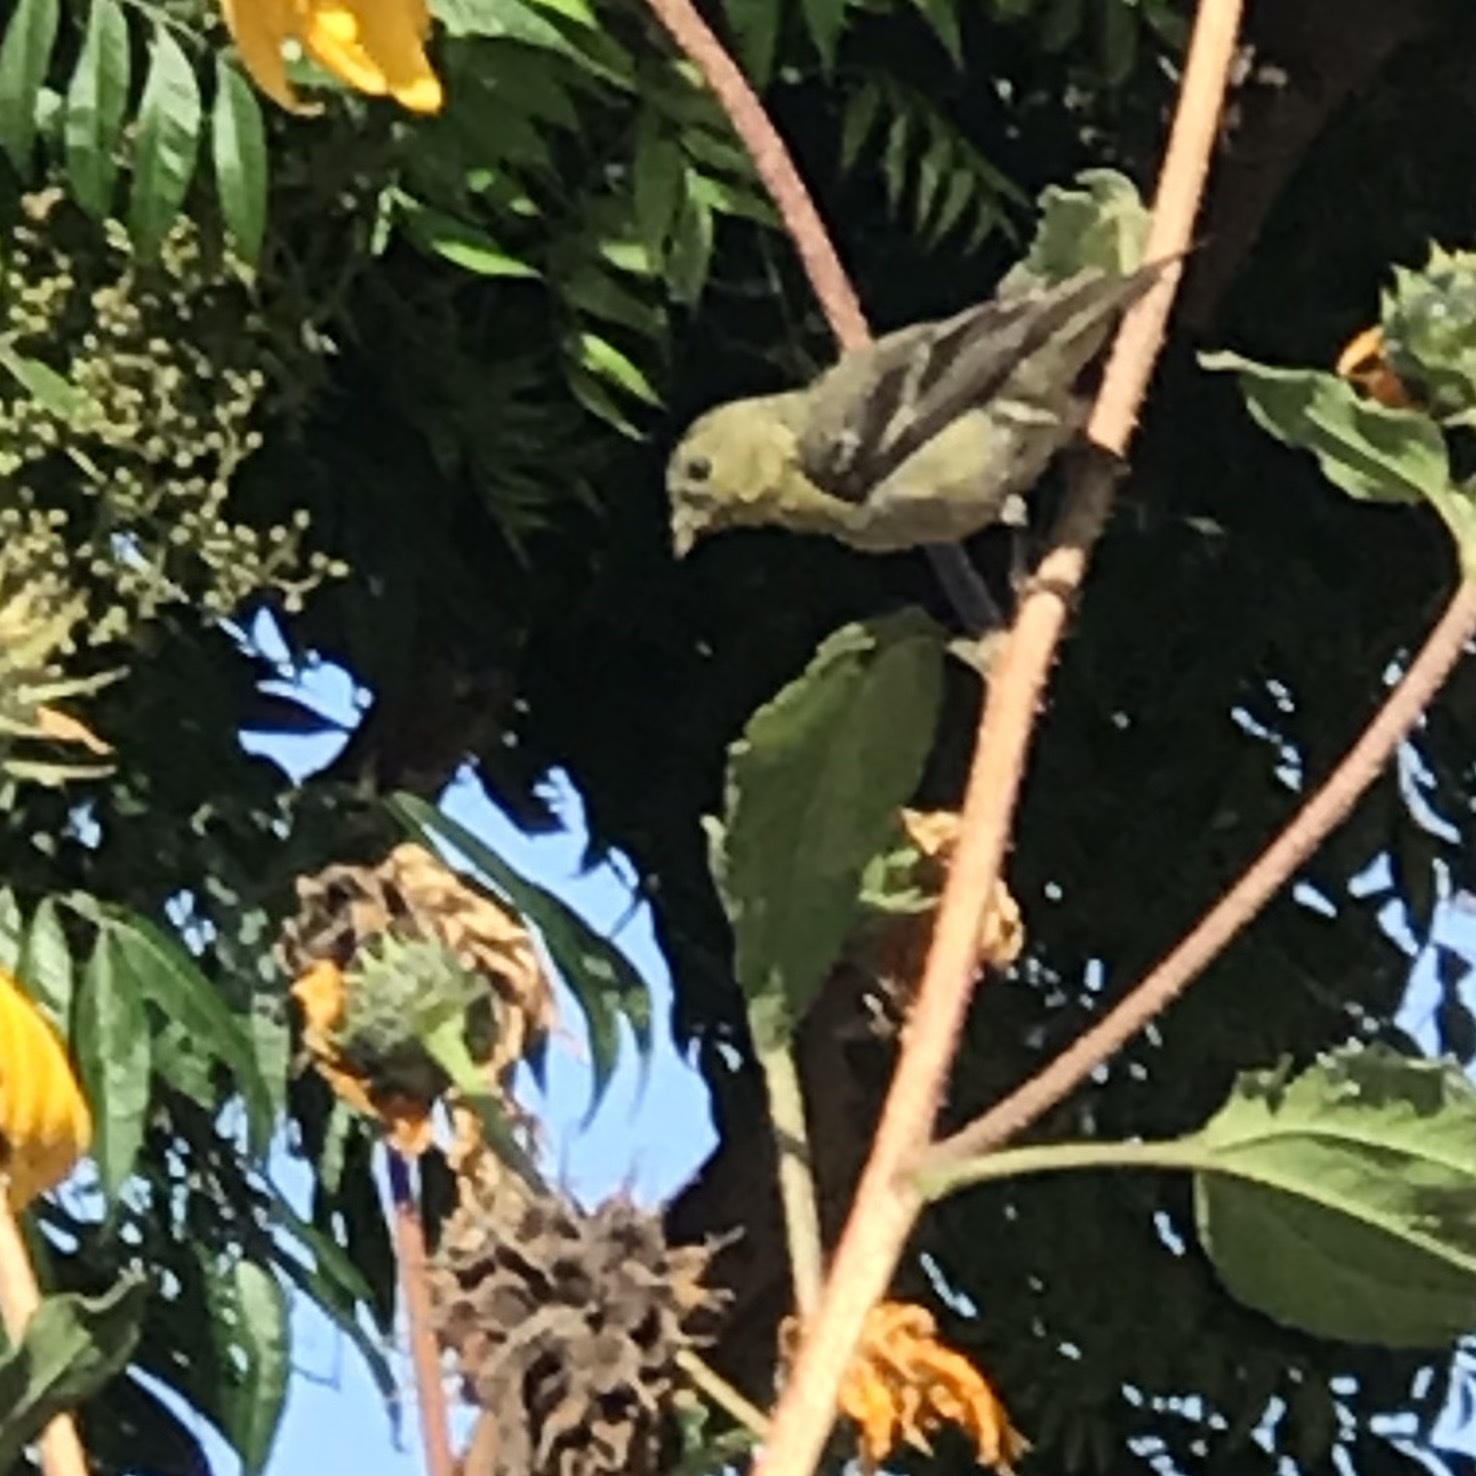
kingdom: Animalia
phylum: Chordata
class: Aves
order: Passeriformes
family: Fringillidae
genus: Spinus
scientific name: Spinus psaltria
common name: Lesser goldfinch
